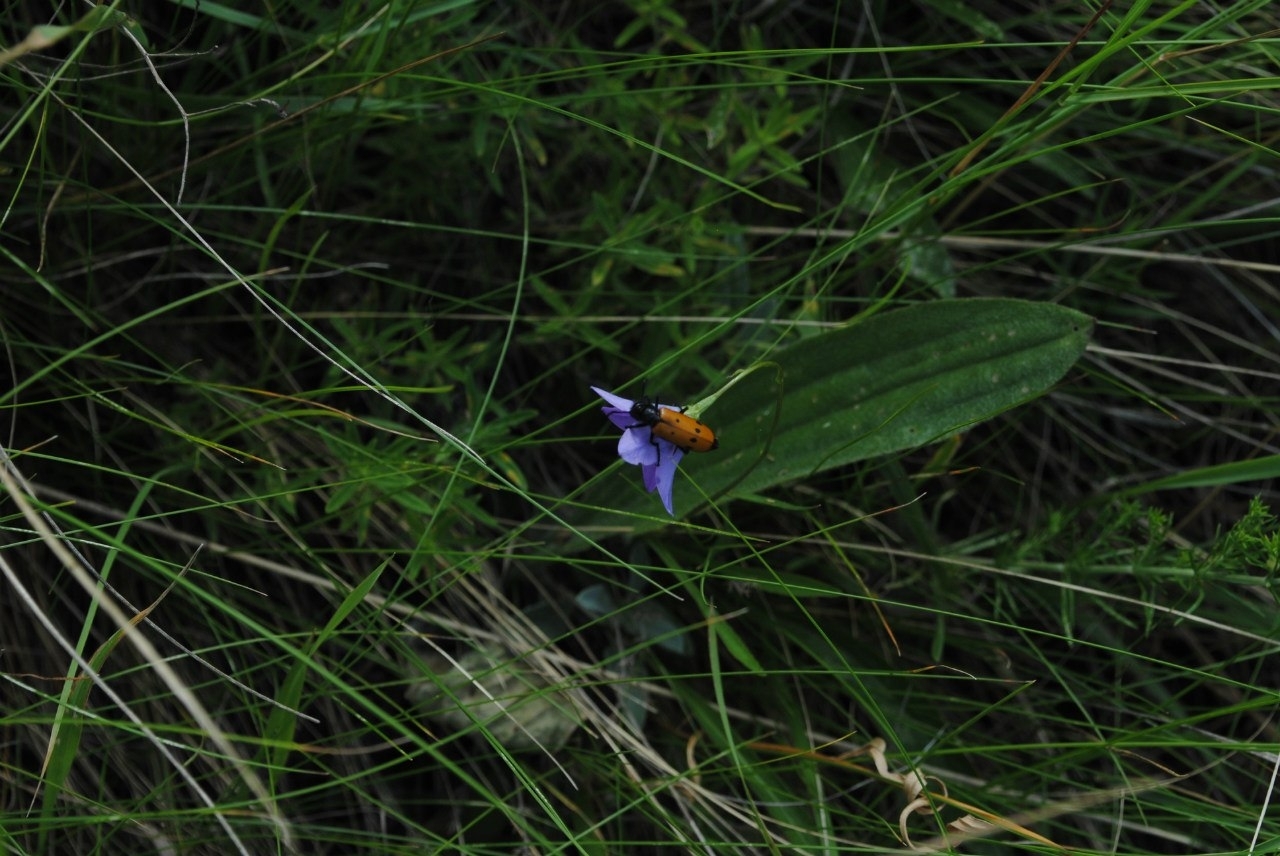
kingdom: Animalia
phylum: Arthropoda
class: Insecta
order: Coleoptera
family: Meloidae
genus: Mylabris
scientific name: Mylabris quadripunctata
